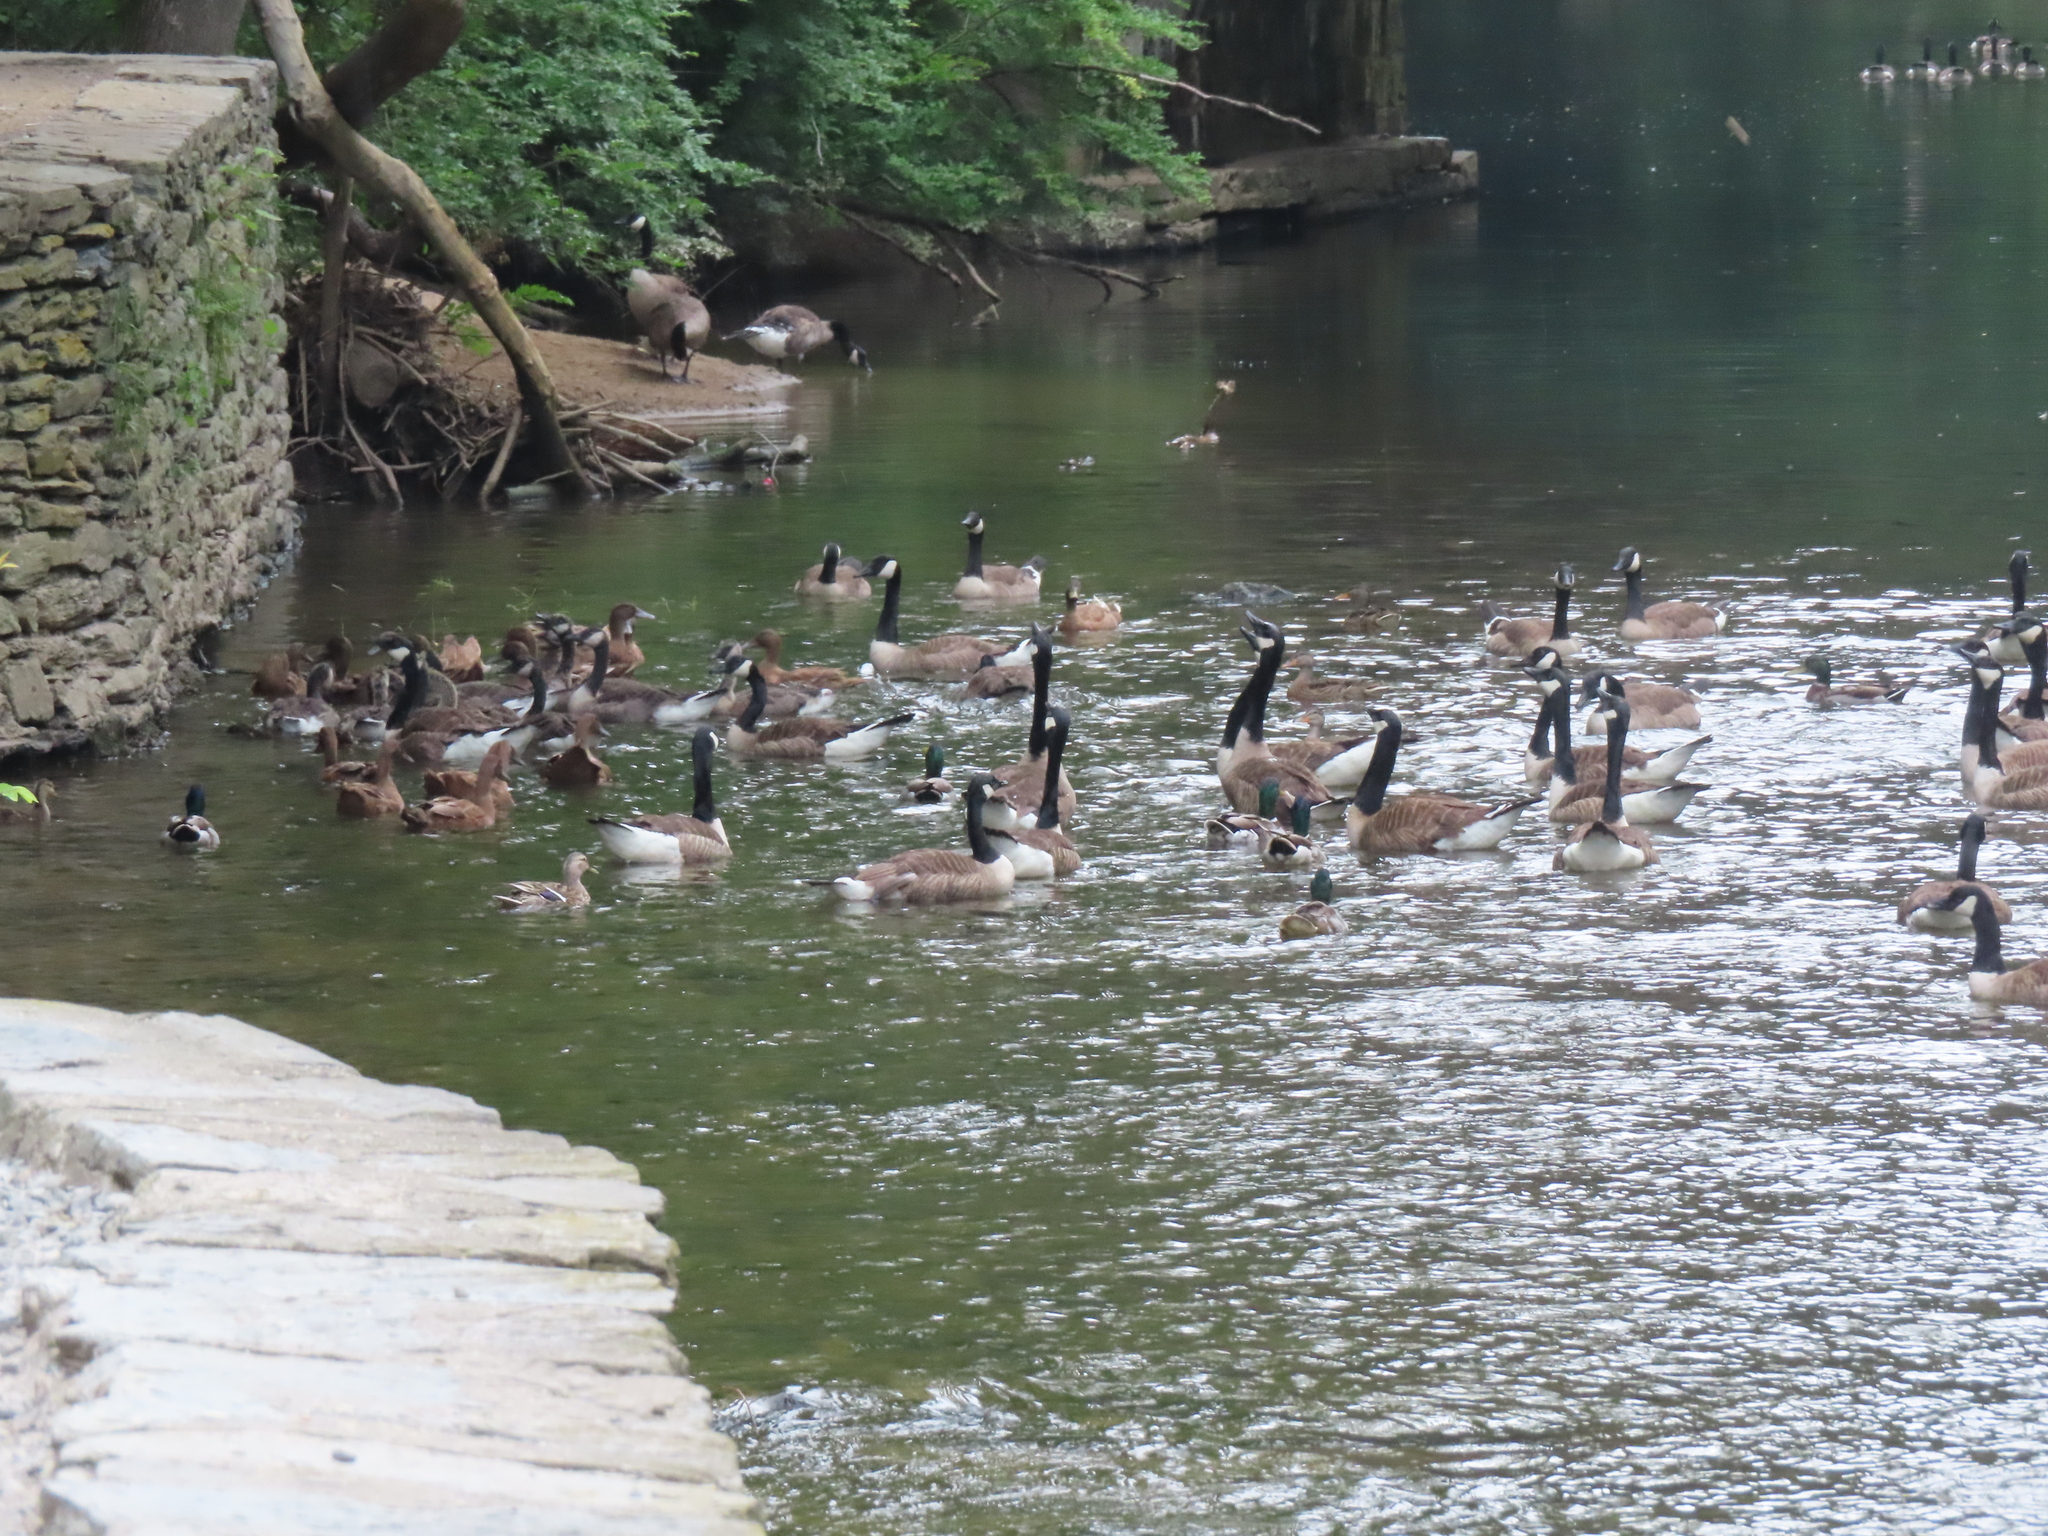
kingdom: Animalia
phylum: Chordata
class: Aves
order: Anseriformes
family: Anatidae
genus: Anas
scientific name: Anas platyrhynchos
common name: Mallard
